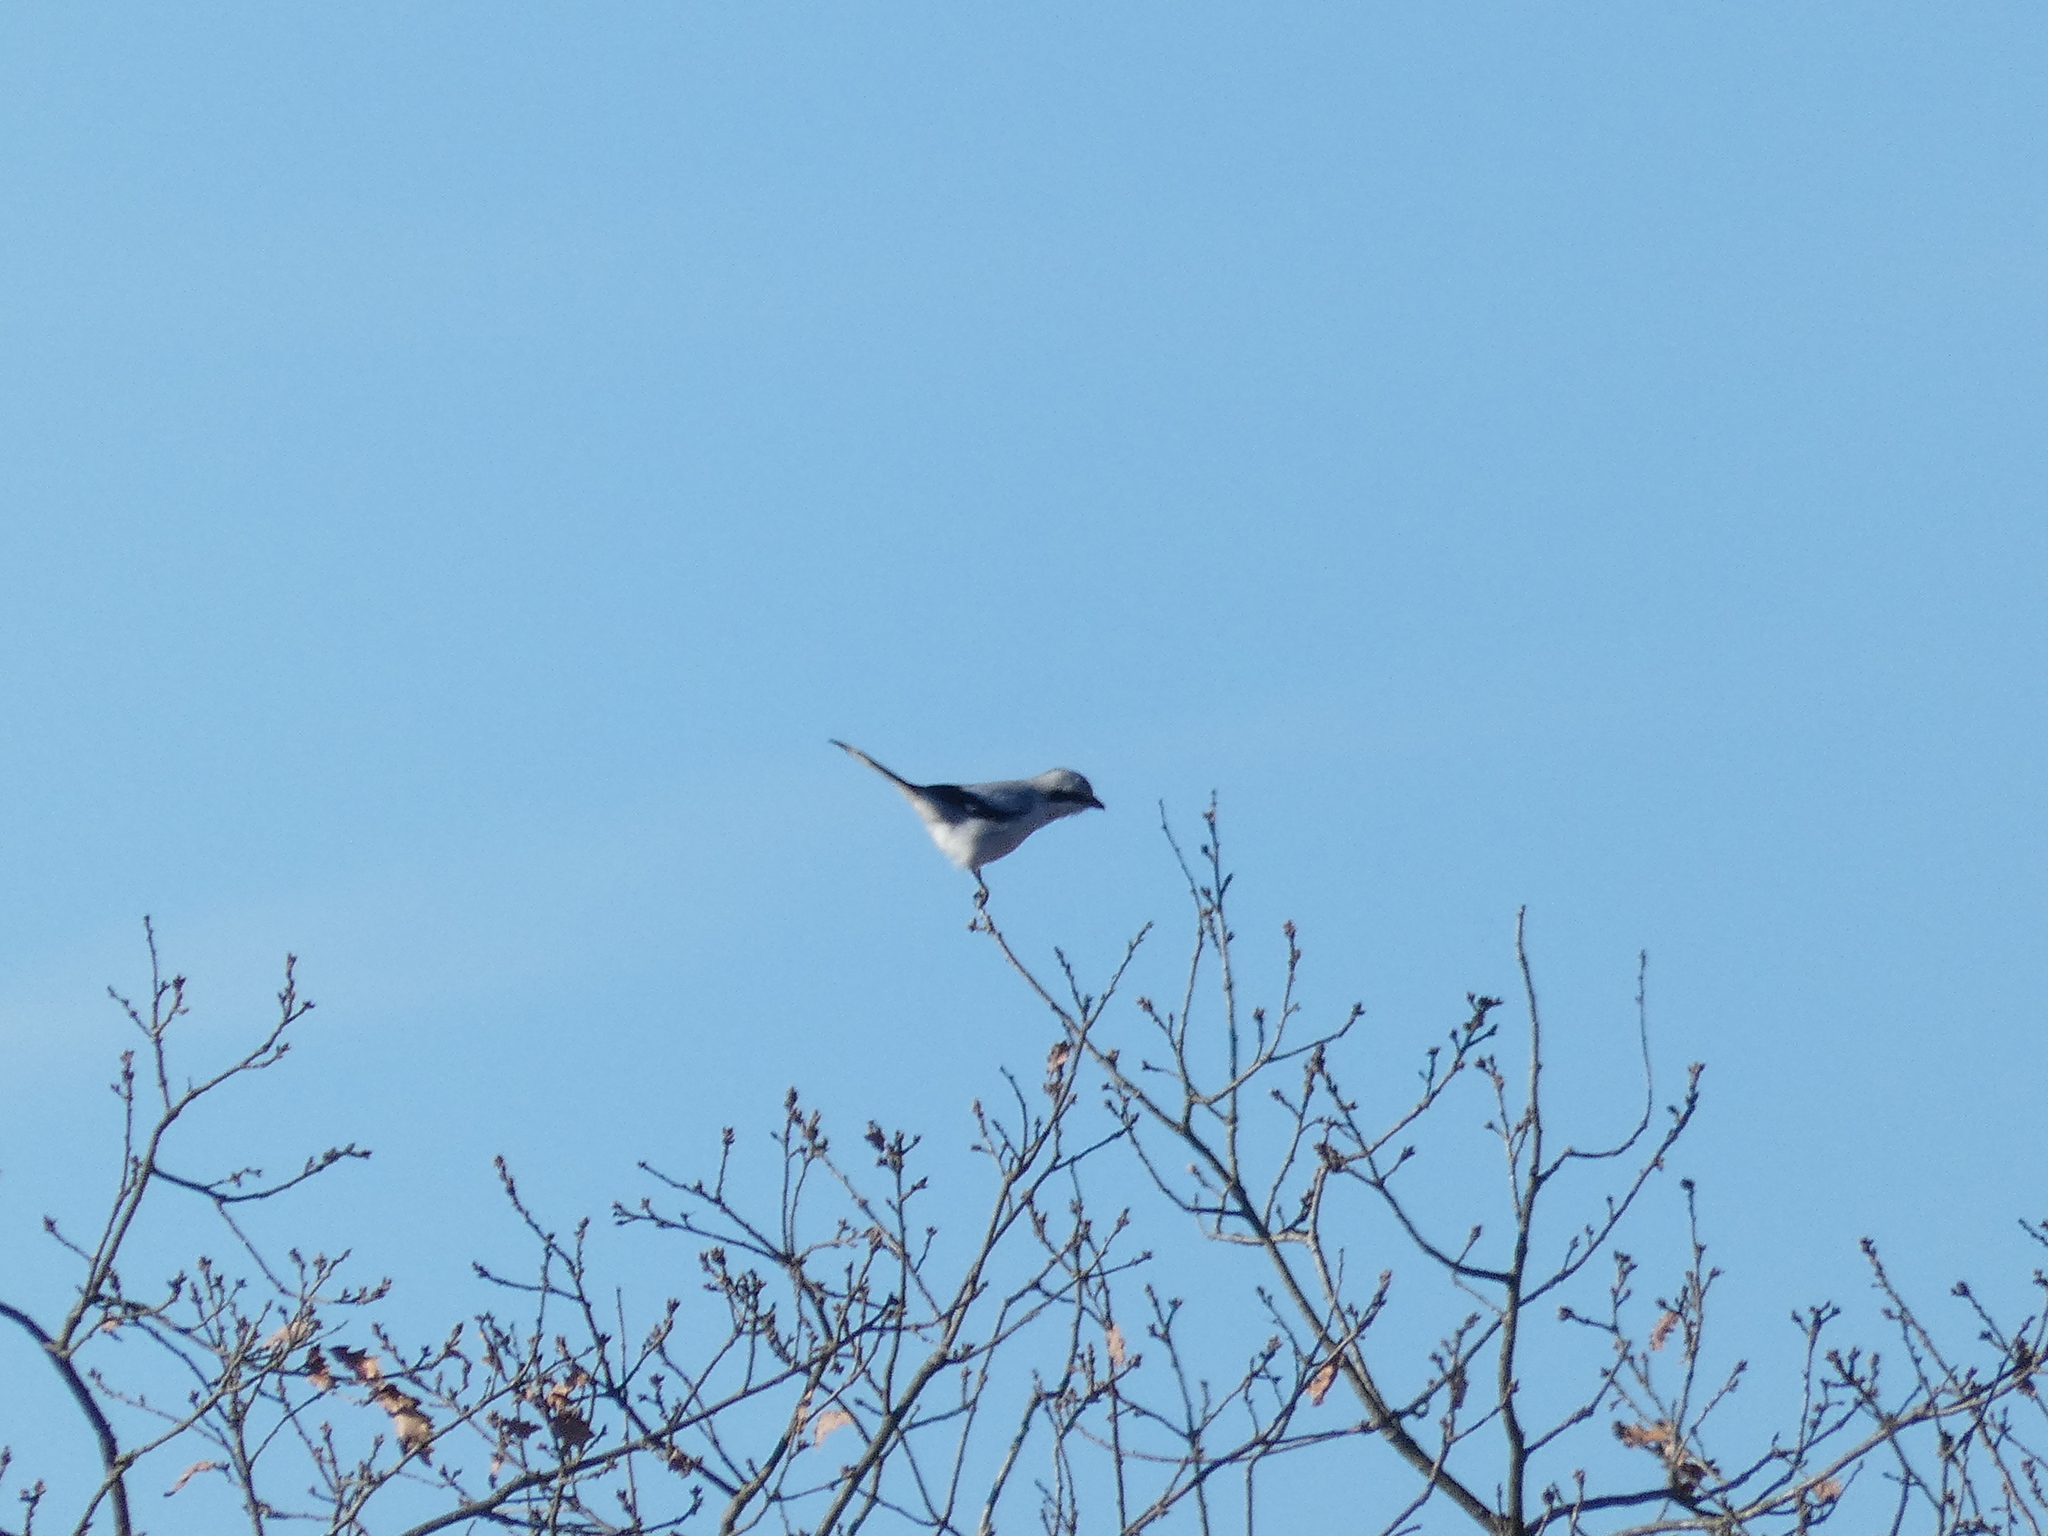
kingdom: Animalia
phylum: Chordata
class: Aves
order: Passeriformes
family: Laniidae
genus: Lanius
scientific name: Lanius excubitor
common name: Great grey shrike
